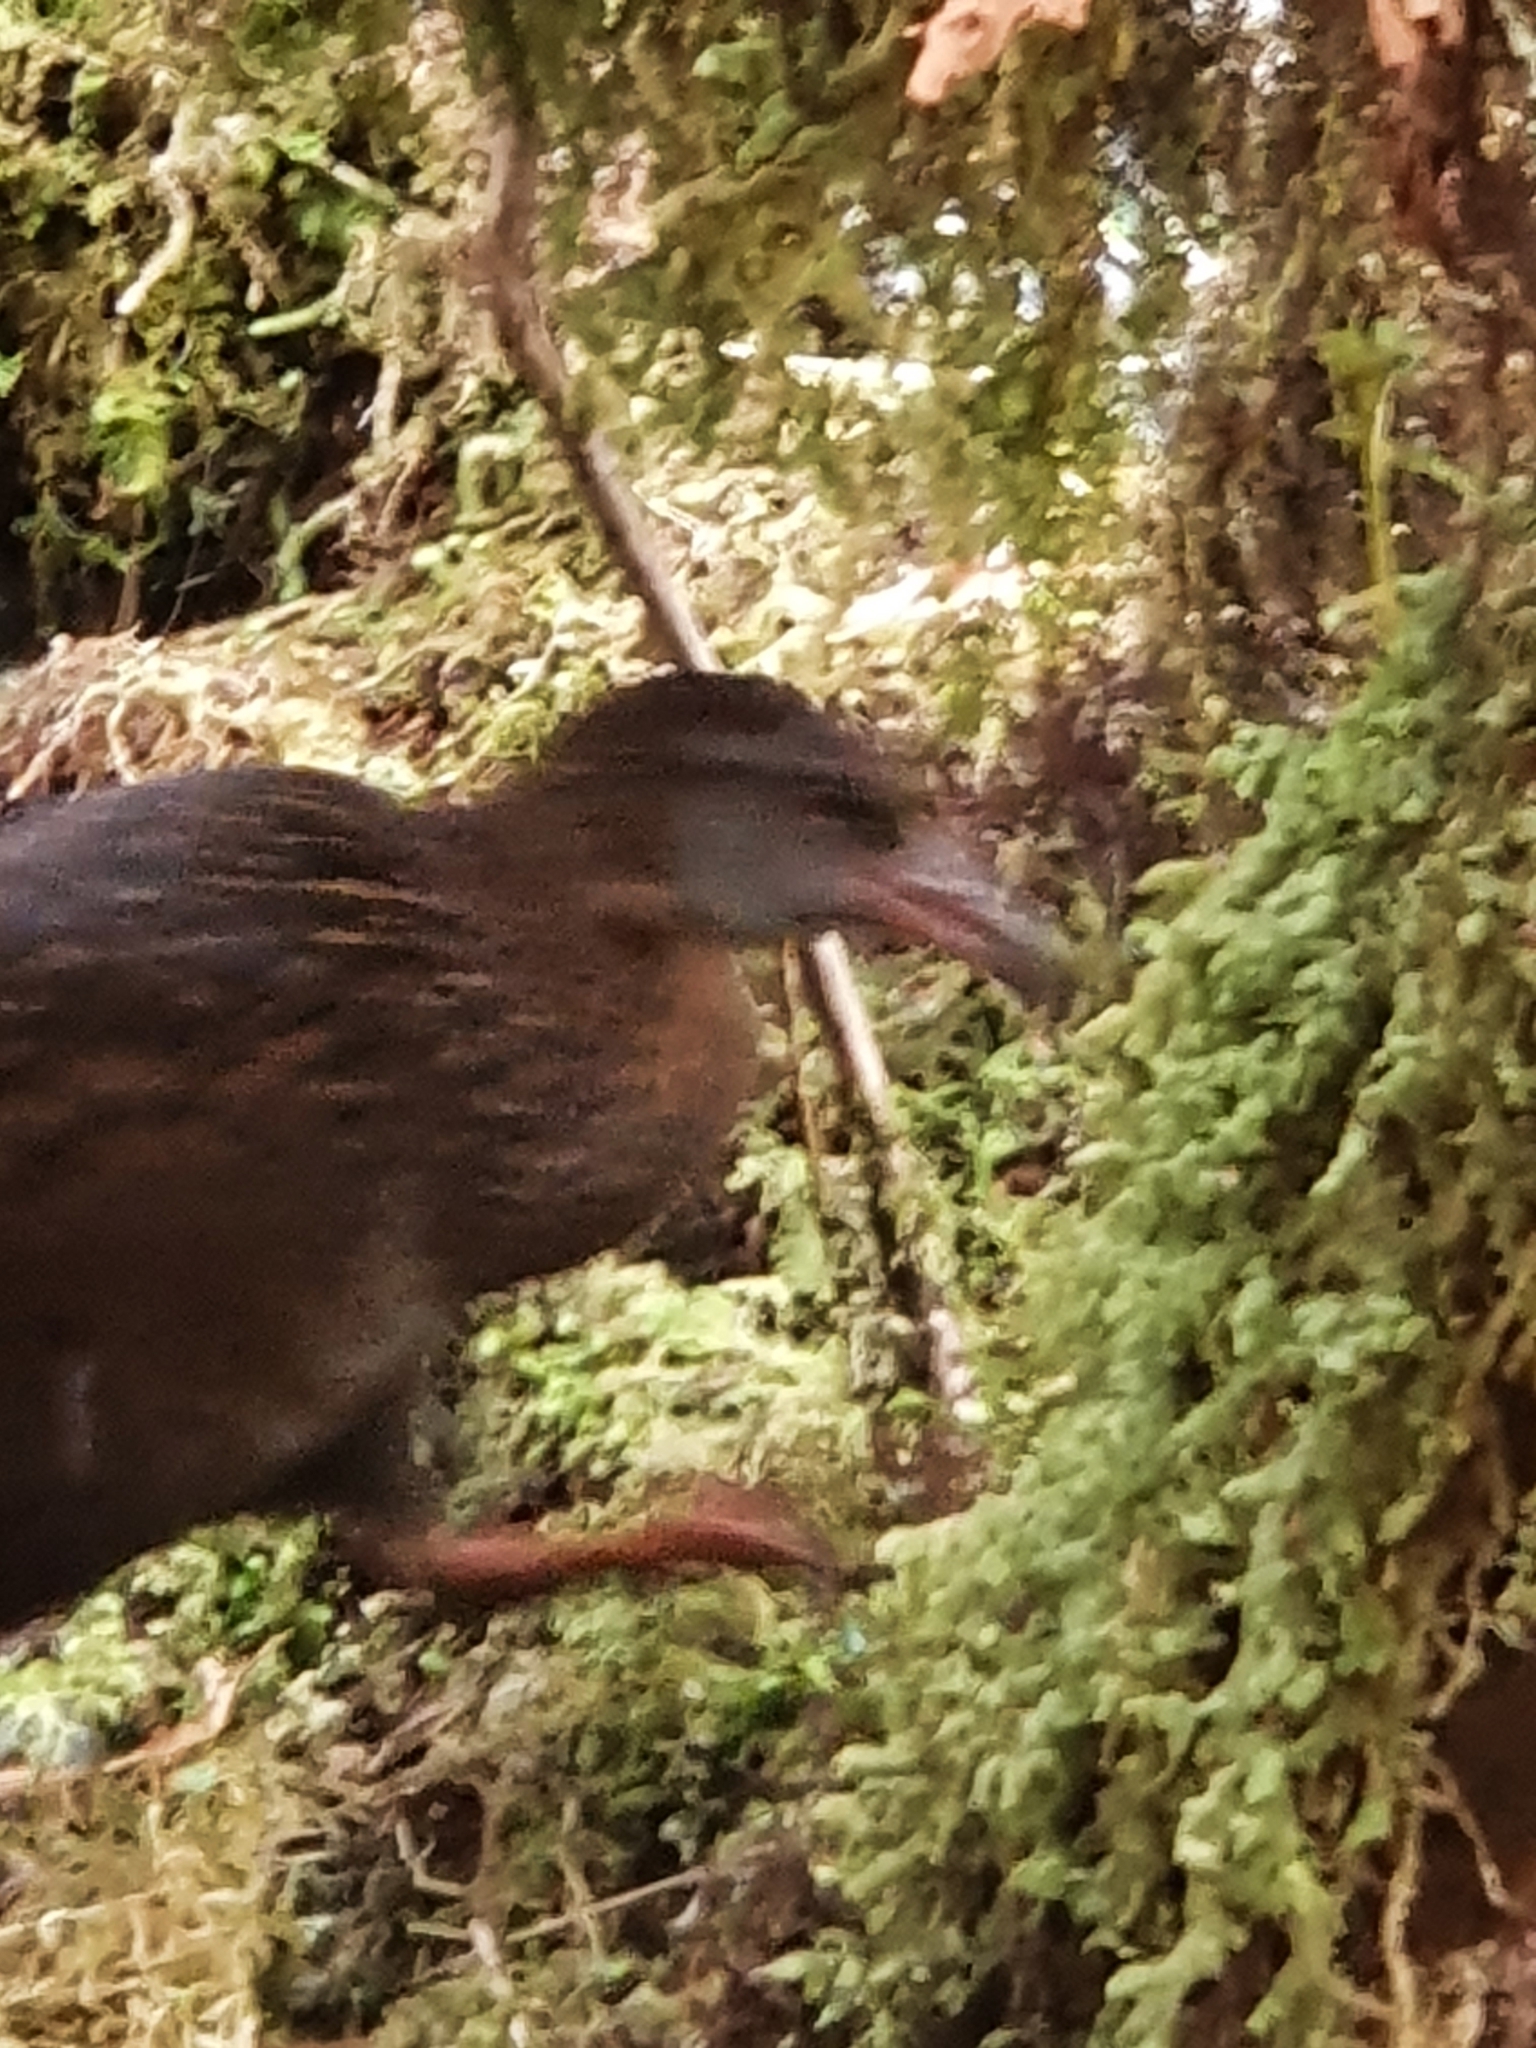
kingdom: Animalia
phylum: Chordata
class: Aves
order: Gruiformes
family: Rallidae
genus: Gallirallus
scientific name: Gallirallus australis
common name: Weka
